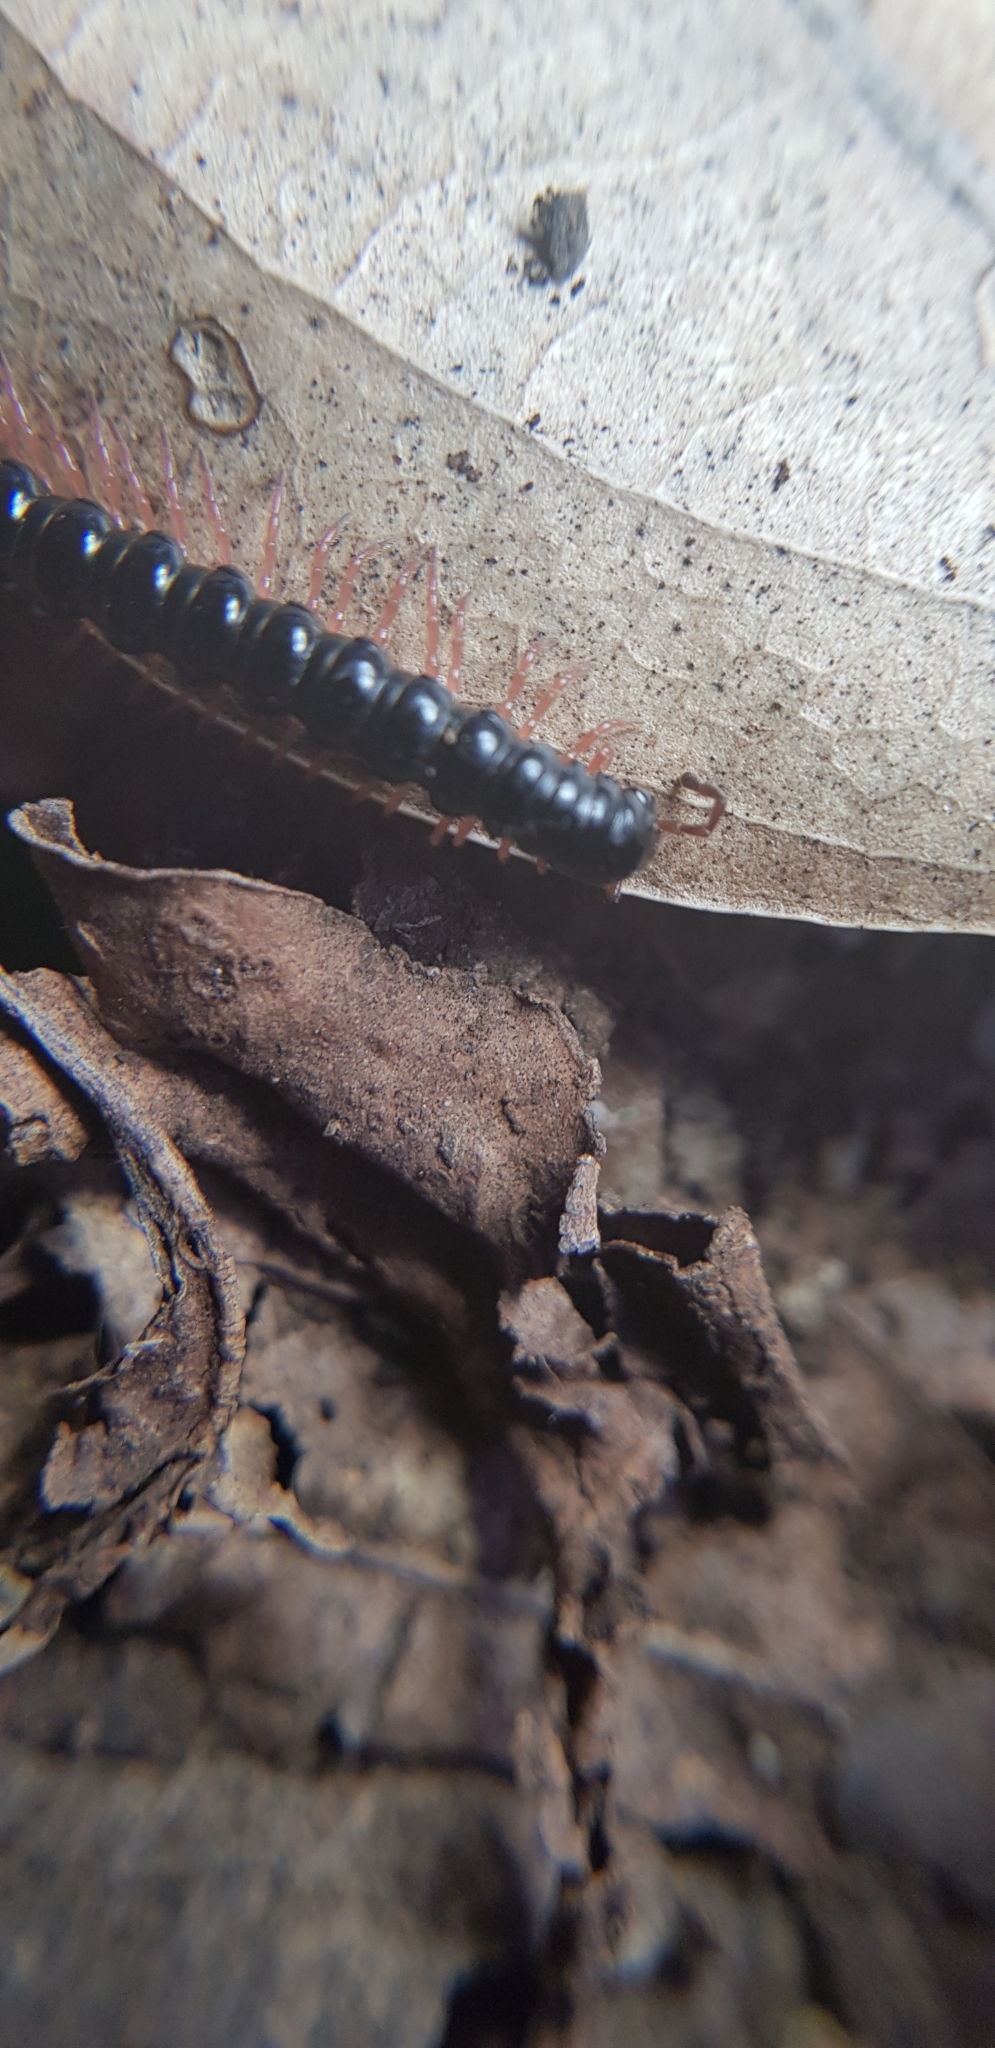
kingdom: Animalia
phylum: Arthropoda
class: Diplopoda
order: Polydesmida
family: Paradoxosomatidae
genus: Heterocladosoma
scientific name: Heterocladosoma
